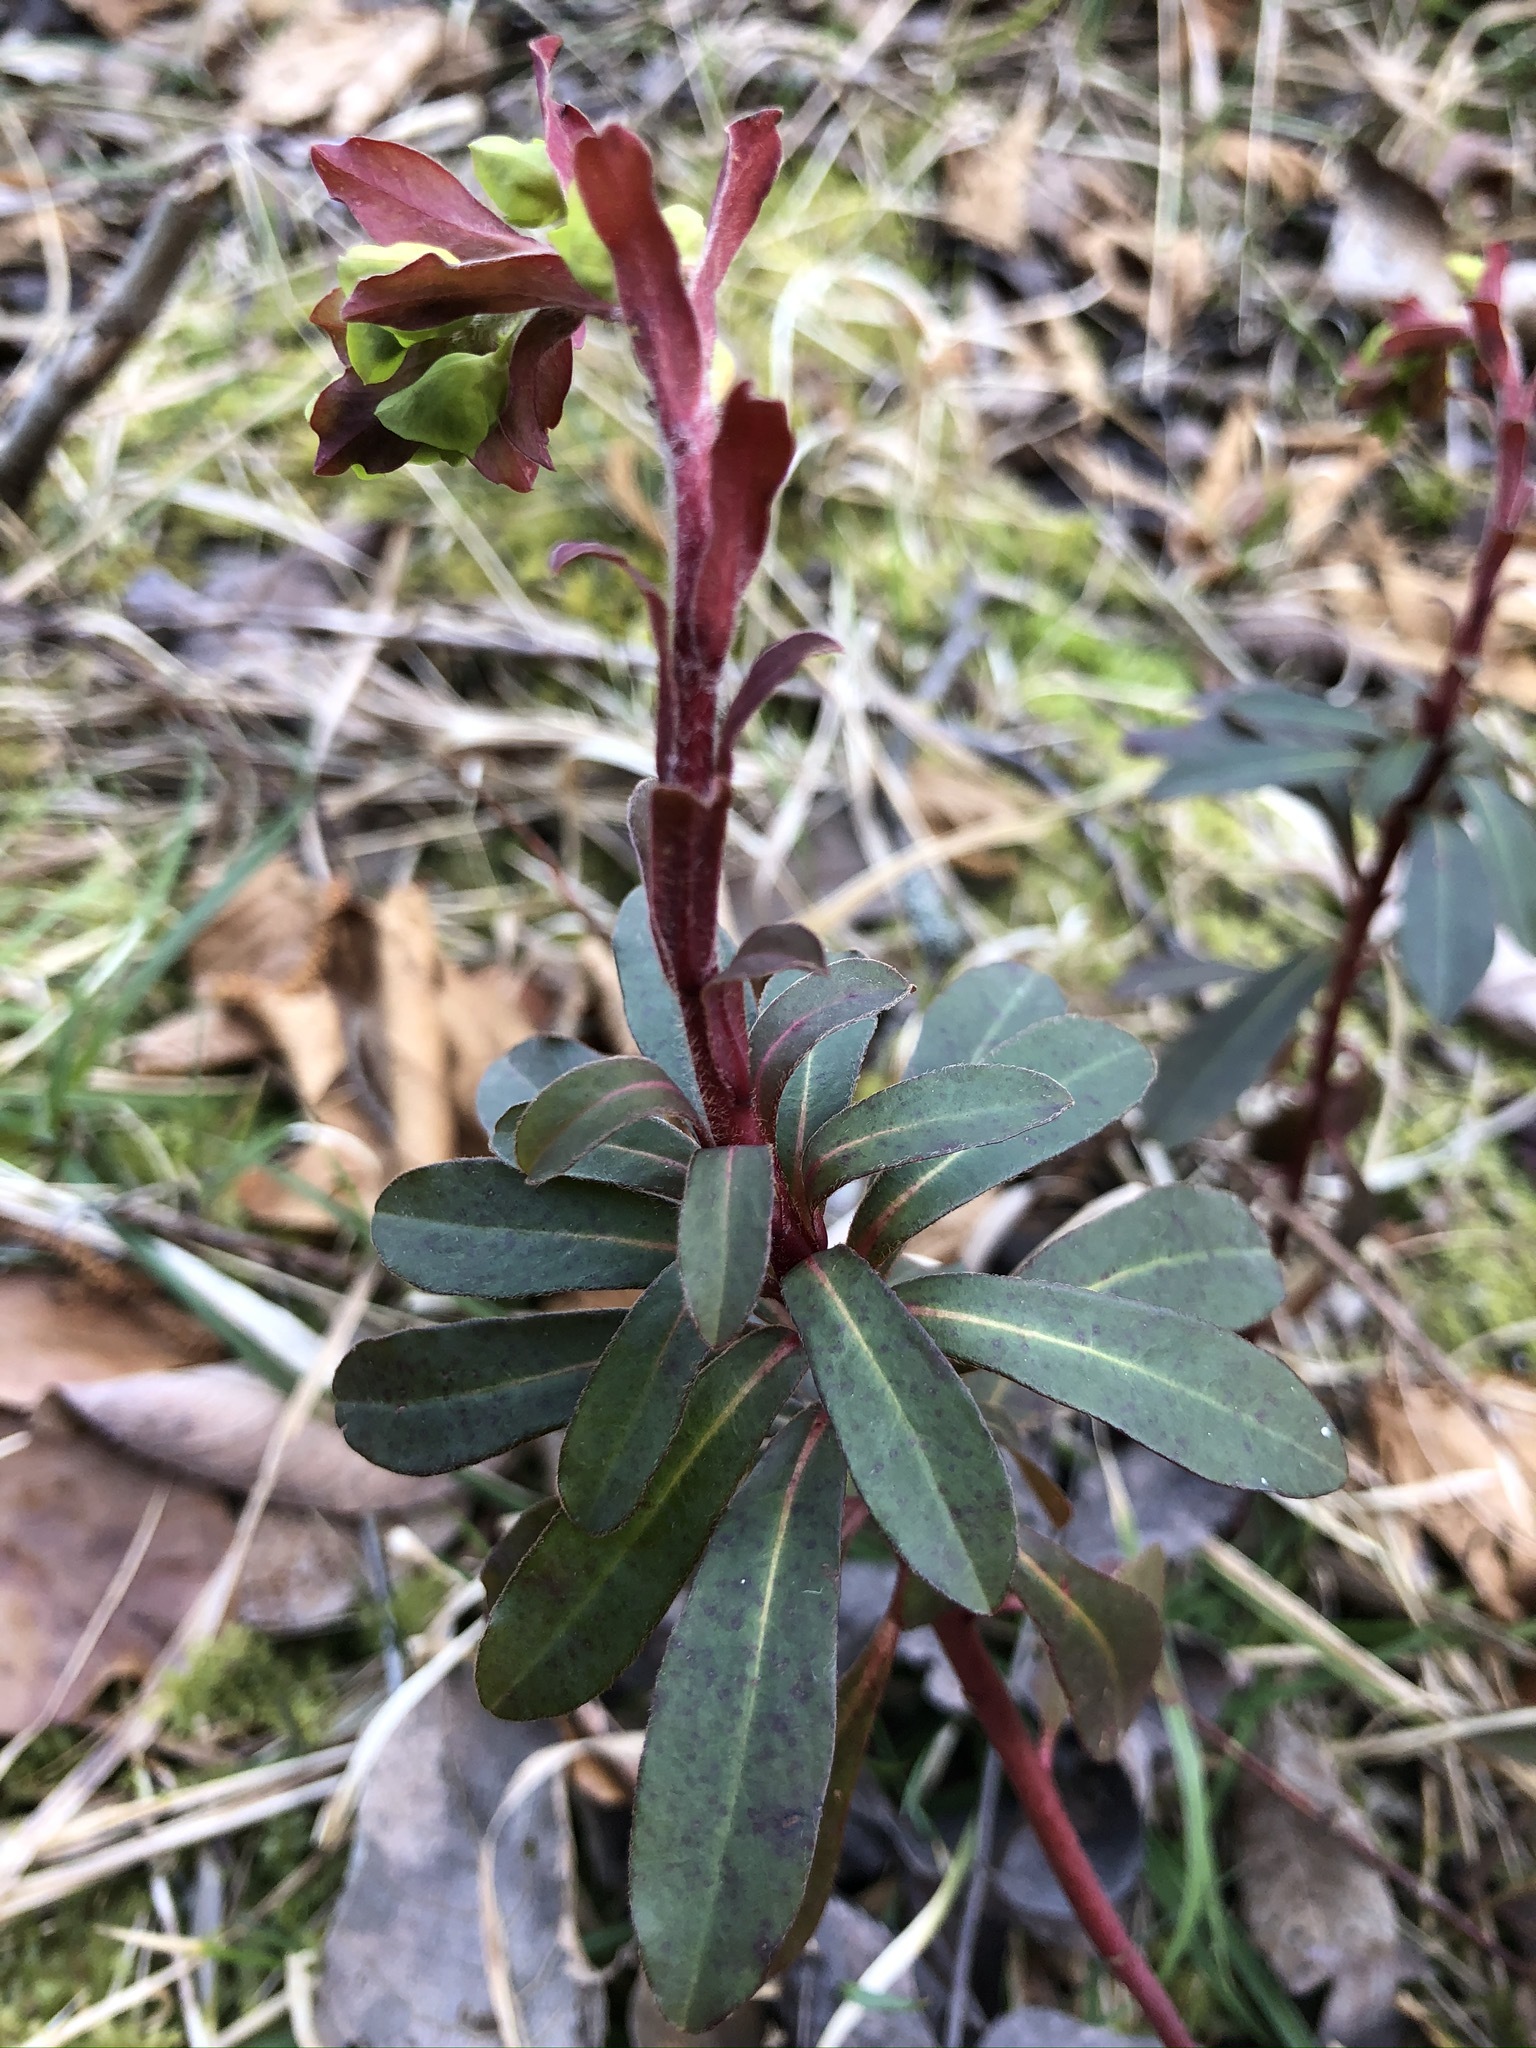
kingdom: Plantae
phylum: Tracheophyta
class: Magnoliopsida
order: Malpighiales
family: Euphorbiaceae
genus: Euphorbia
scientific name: Euphorbia amygdaloides
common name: Wood spurge
